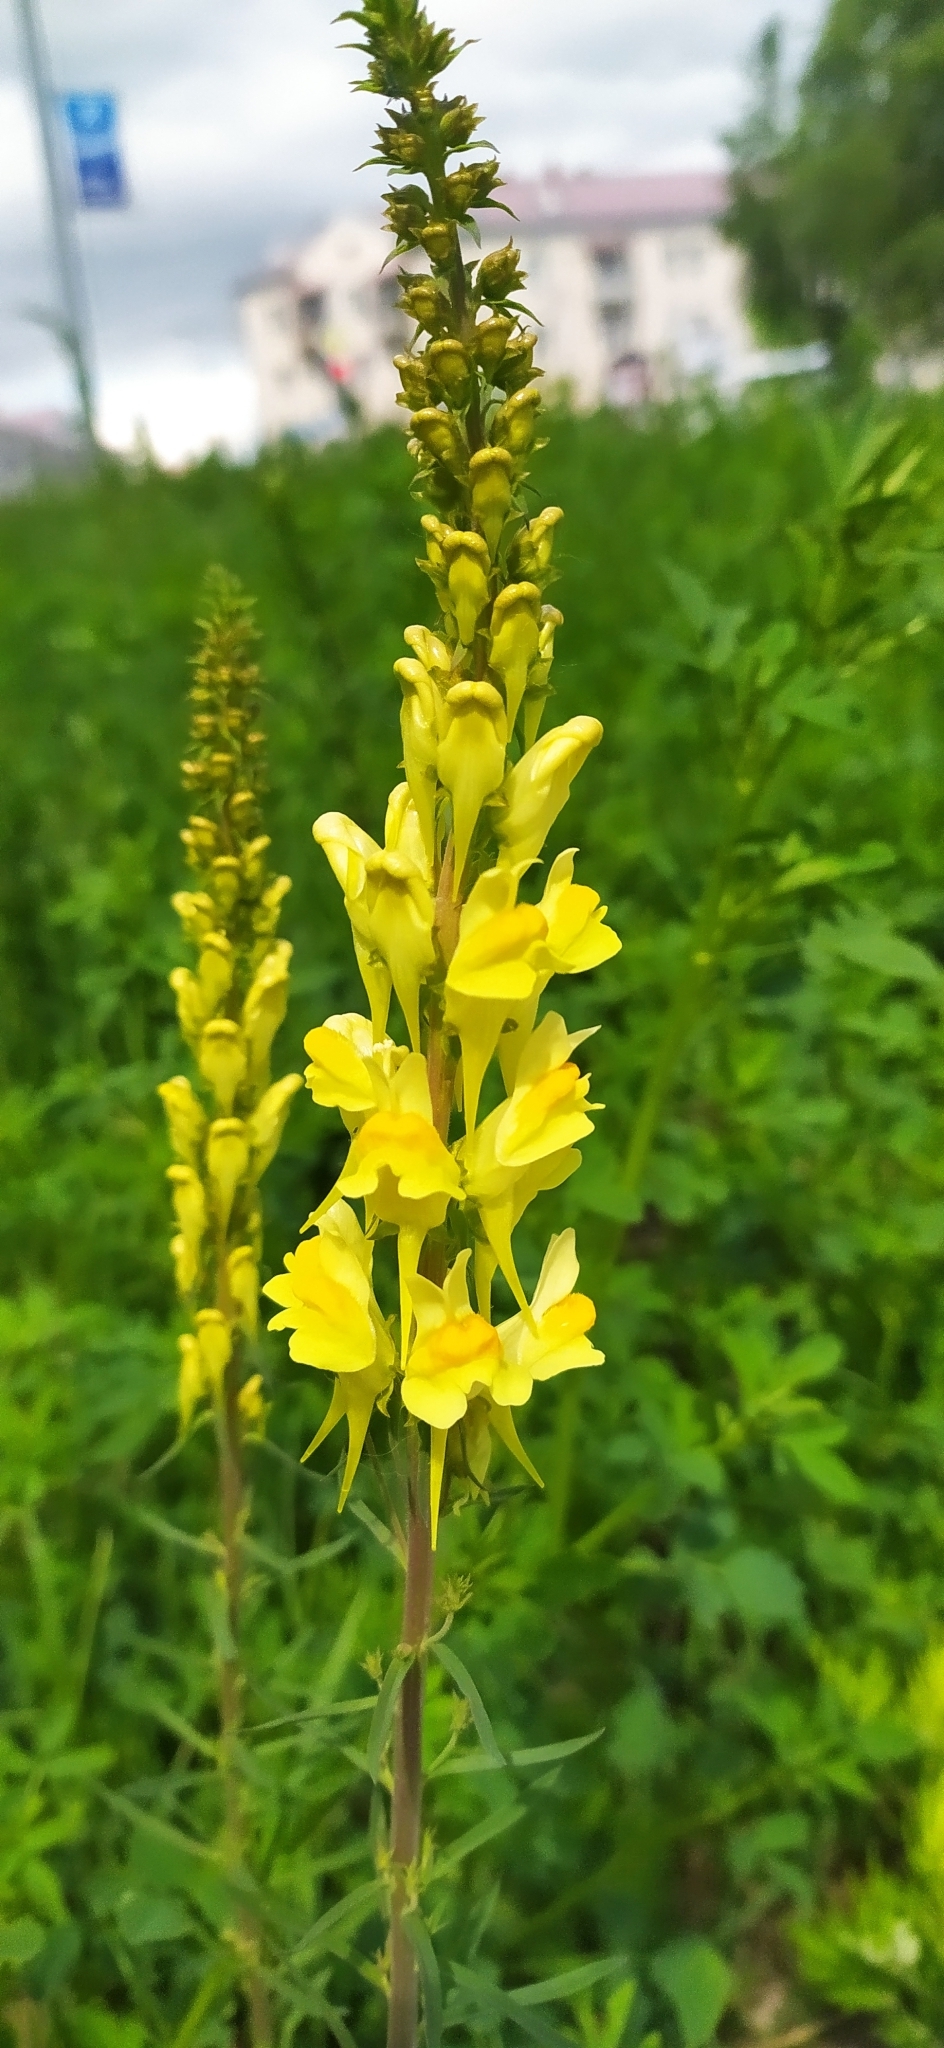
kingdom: Plantae
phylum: Tracheophyta
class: Magnoliopsida
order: Lamiales
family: Plantaginaceae
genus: Linaria
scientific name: Linaria vulgaris
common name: Butter and eggs
